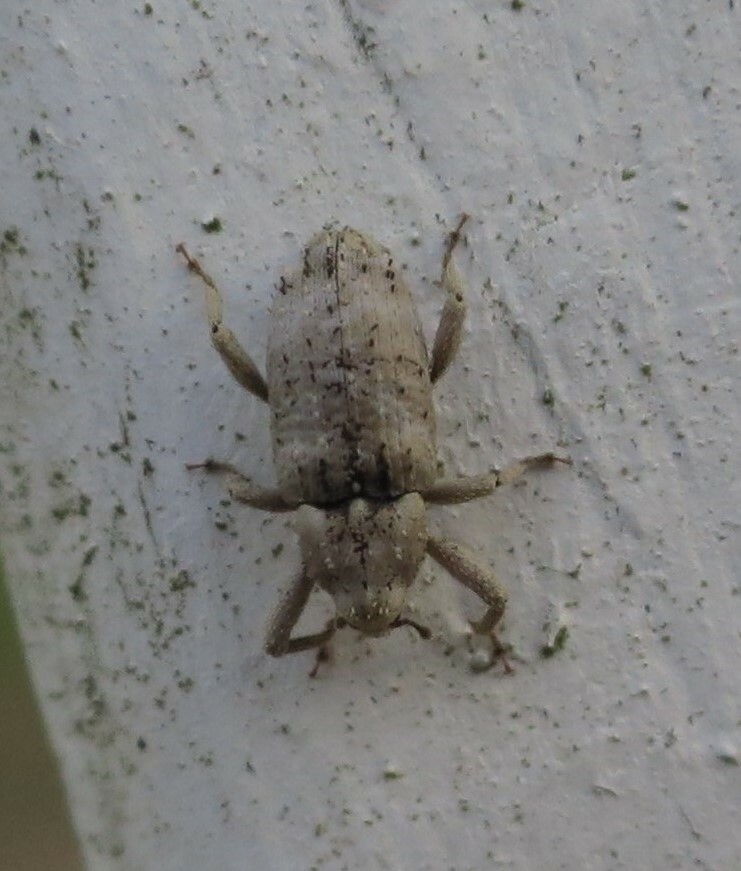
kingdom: Animalia
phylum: Arthropoda
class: Insecta
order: Coleoptera
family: Curculionidae
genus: Mitrastethus
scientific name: Mitrastethus baridioides
